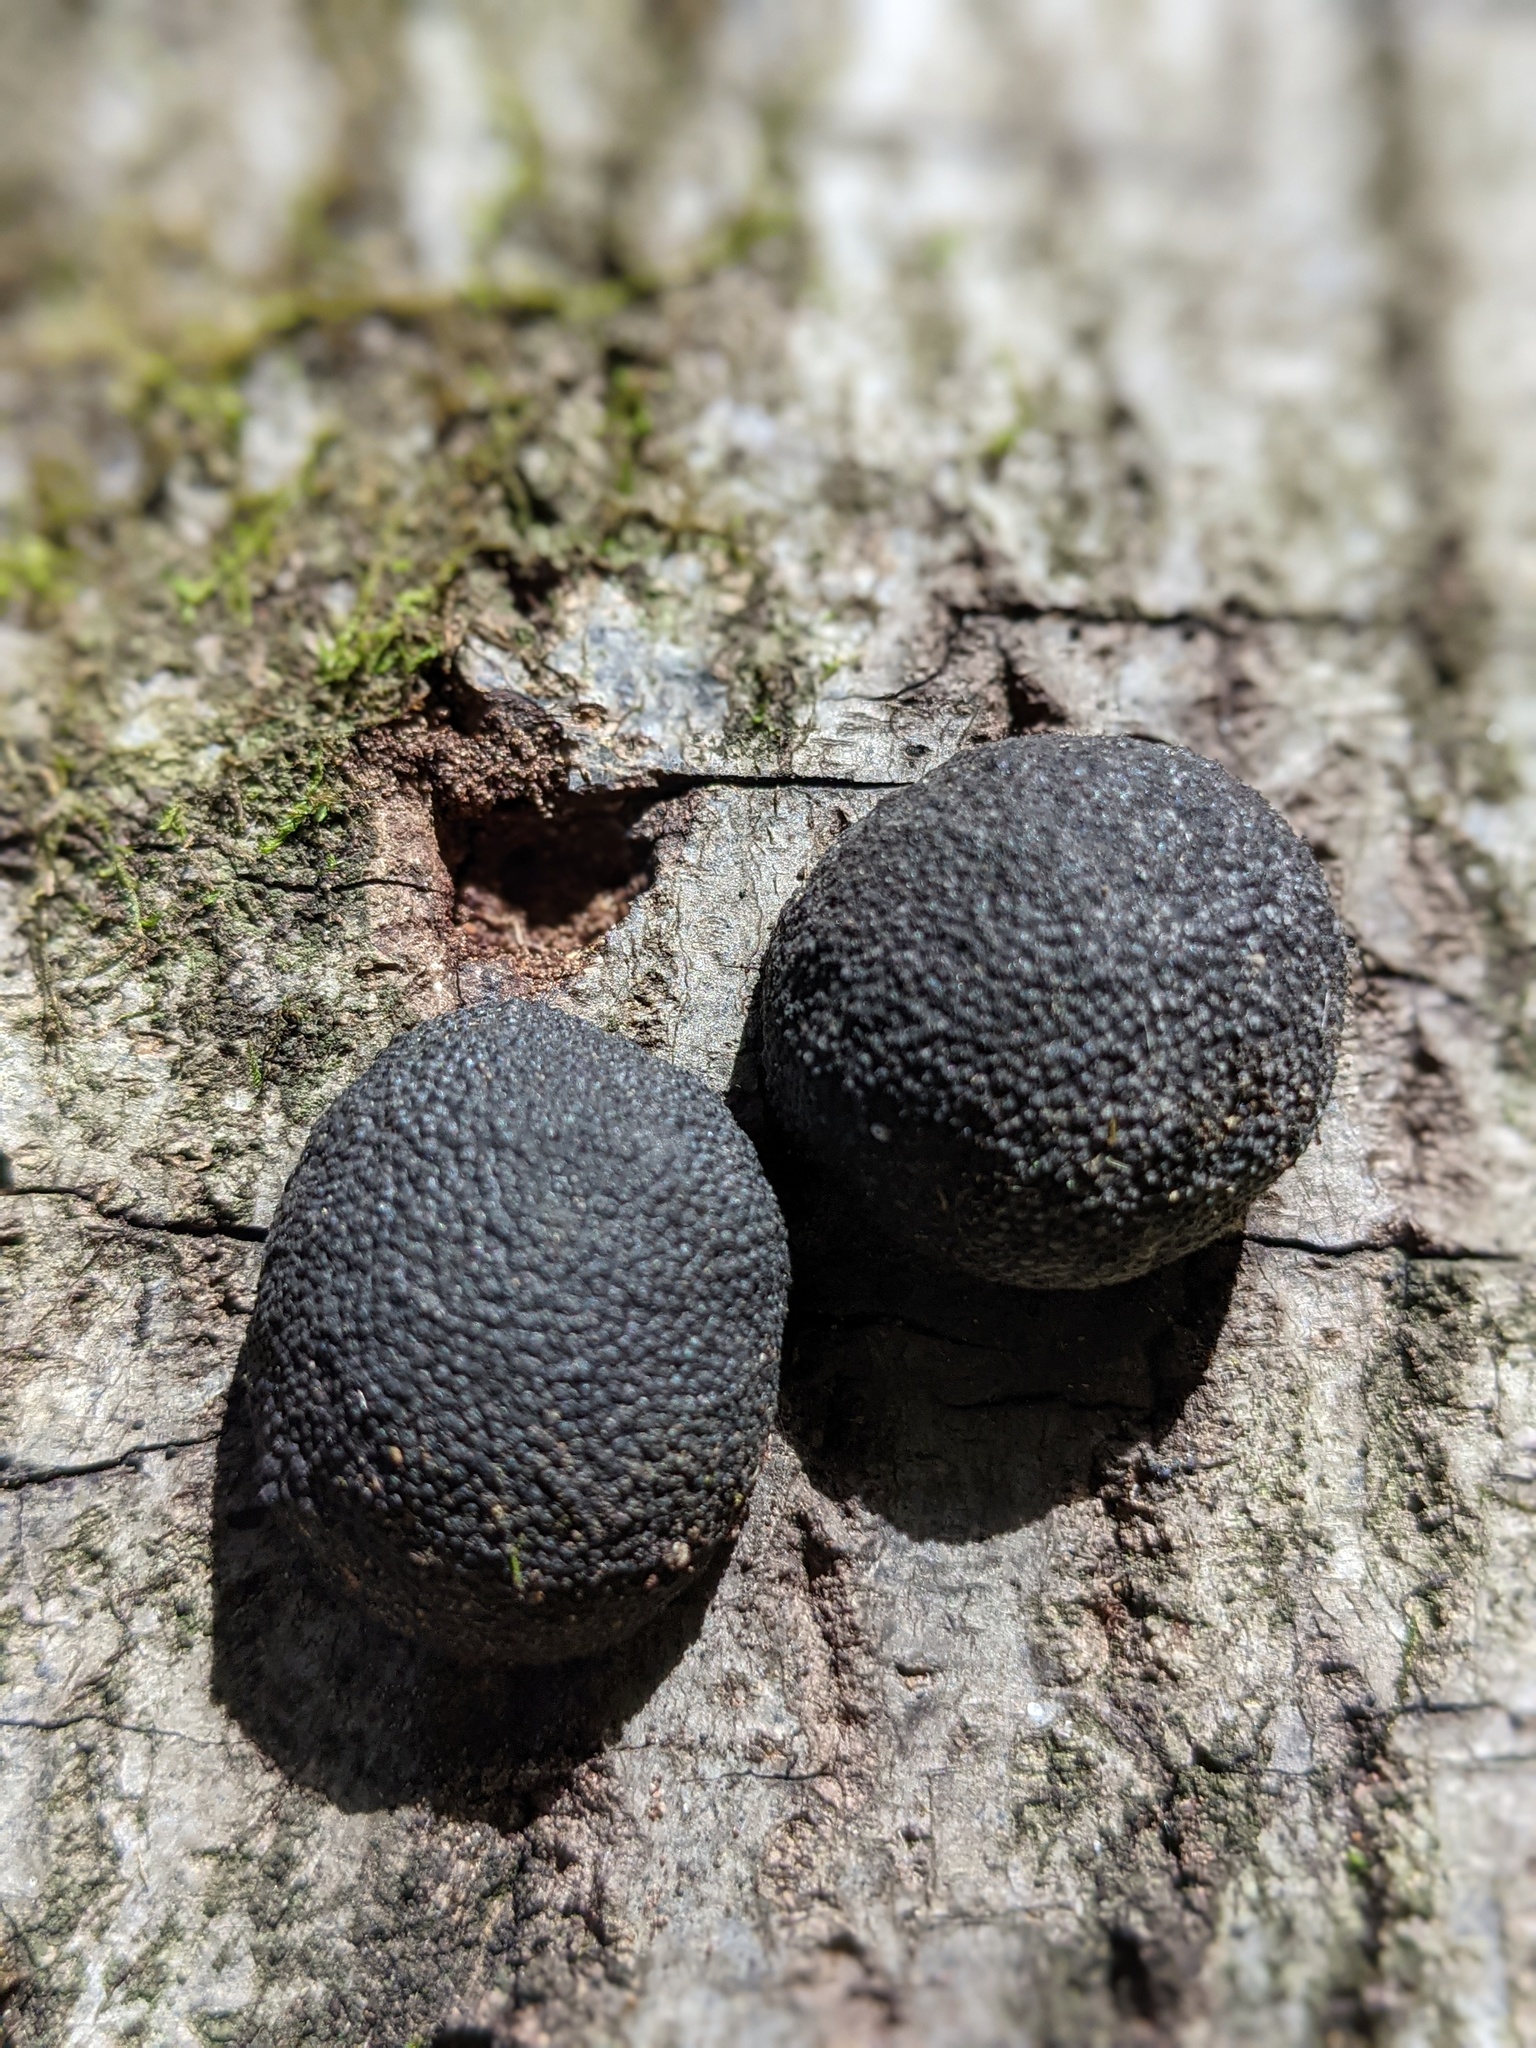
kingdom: Fungi
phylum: Ascomycota
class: Sordariomycetes
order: Xylariales
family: Hypoxylaceae
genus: Annulohypoxylon
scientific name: Annulohypoxylon thouarsianum
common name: Cramp balls
